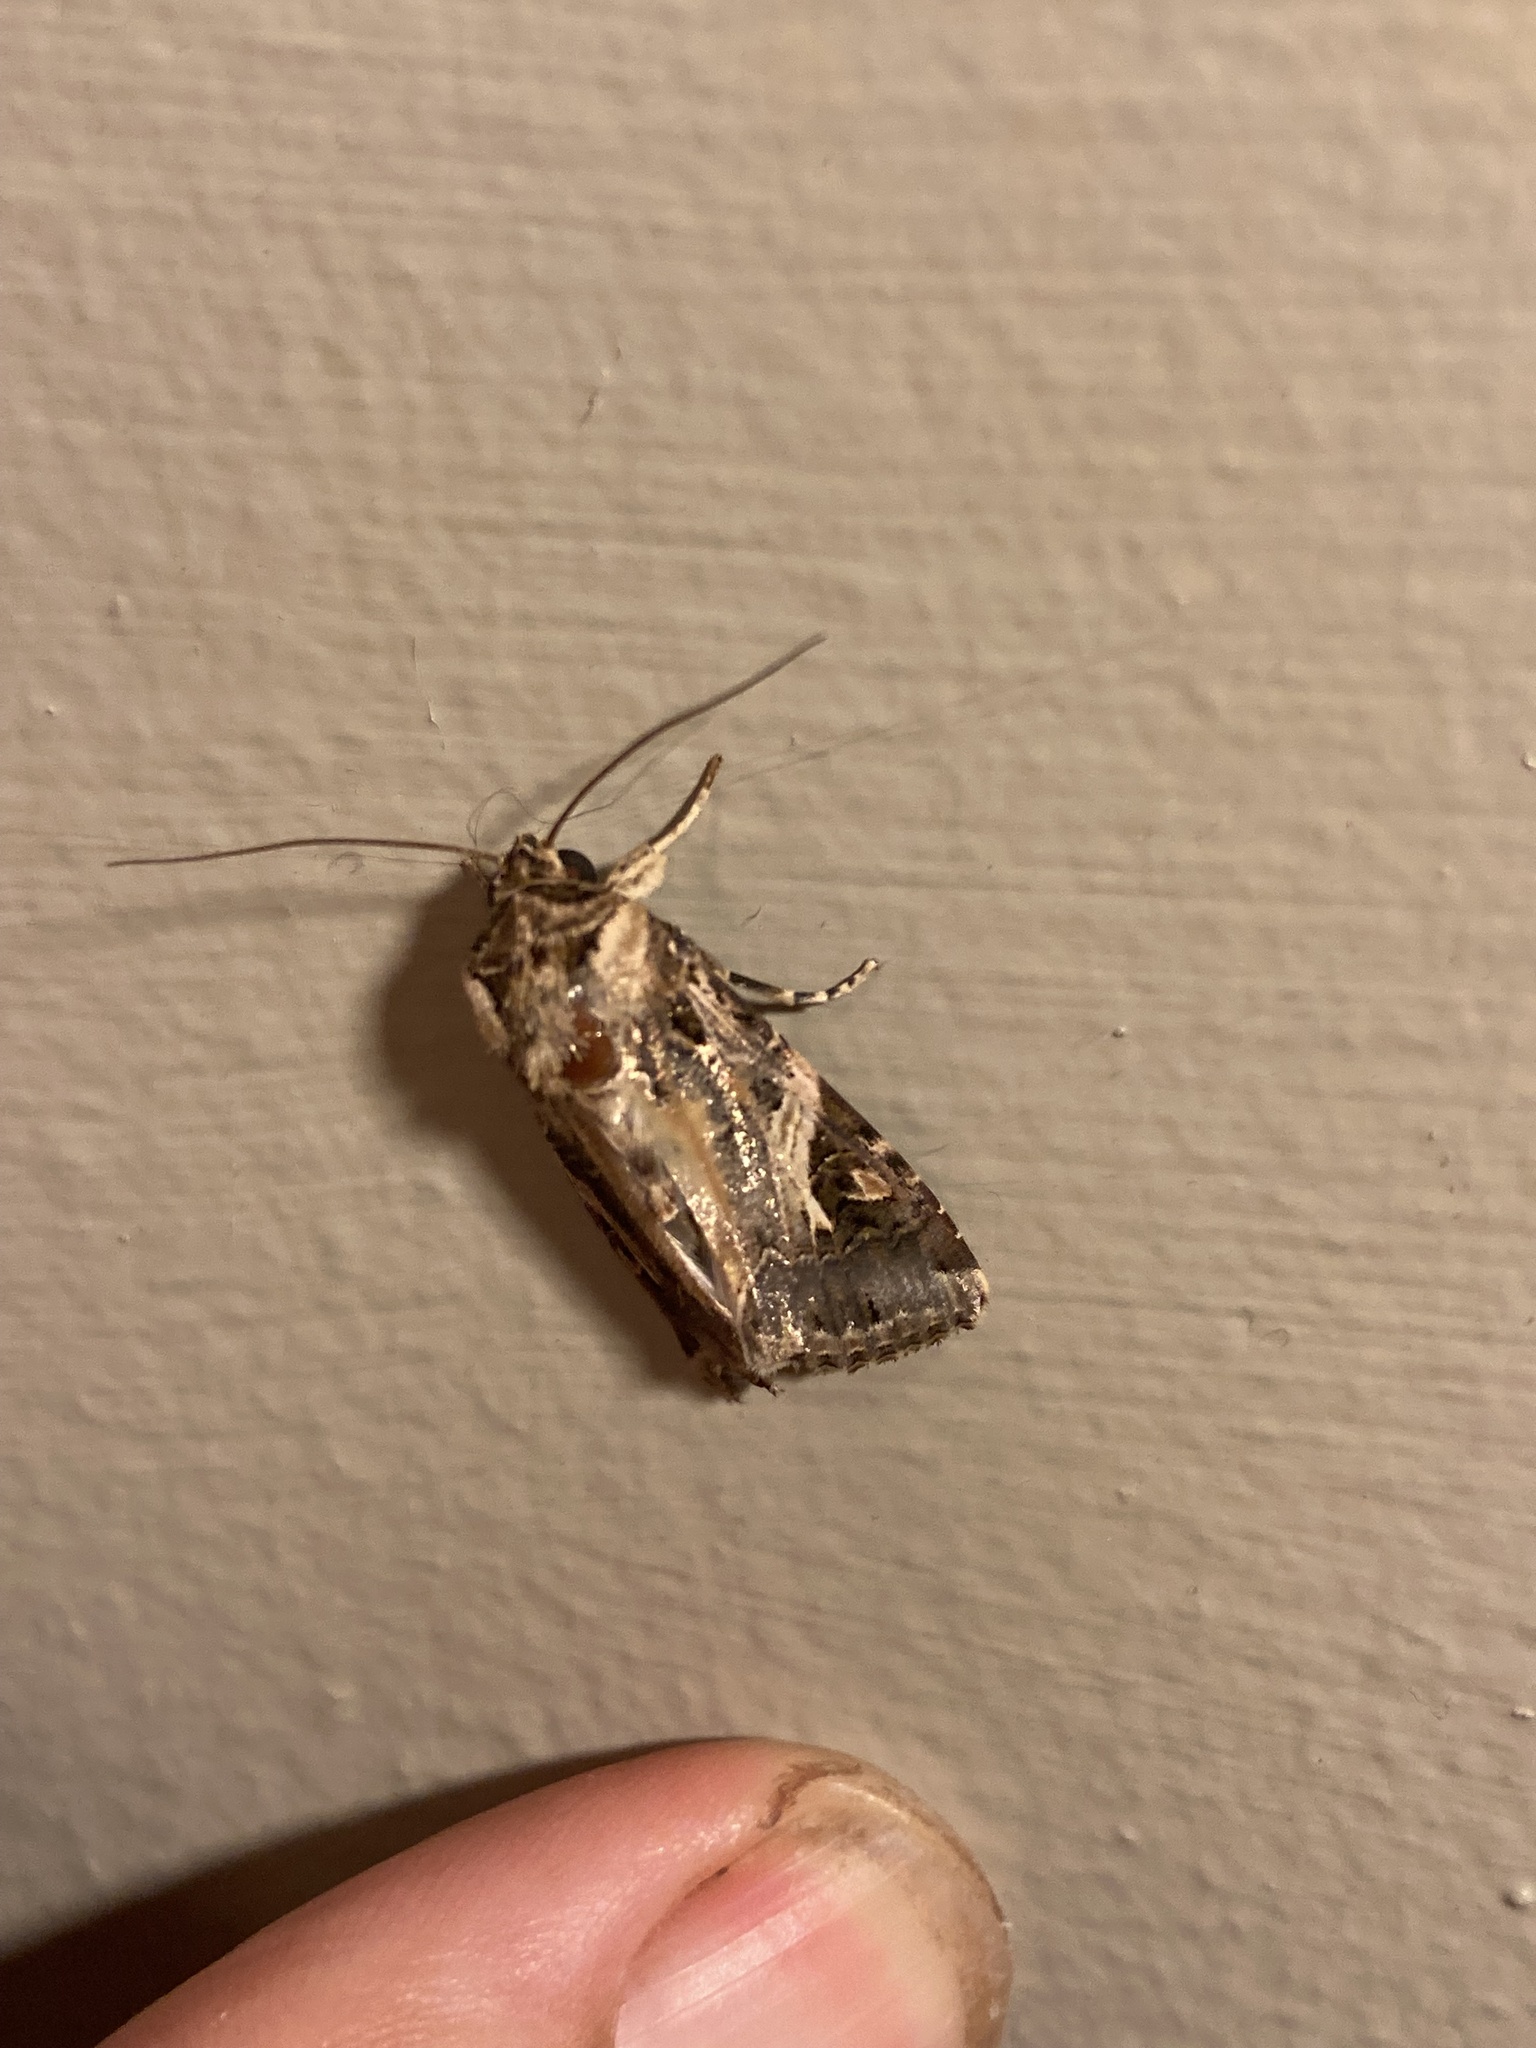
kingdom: Animalia
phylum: Arthropoda
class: Insecta
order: Lepidoptera
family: Noctuidae
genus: Spodoptera
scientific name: Spodoptera litura
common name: Asian cotton leafworm
